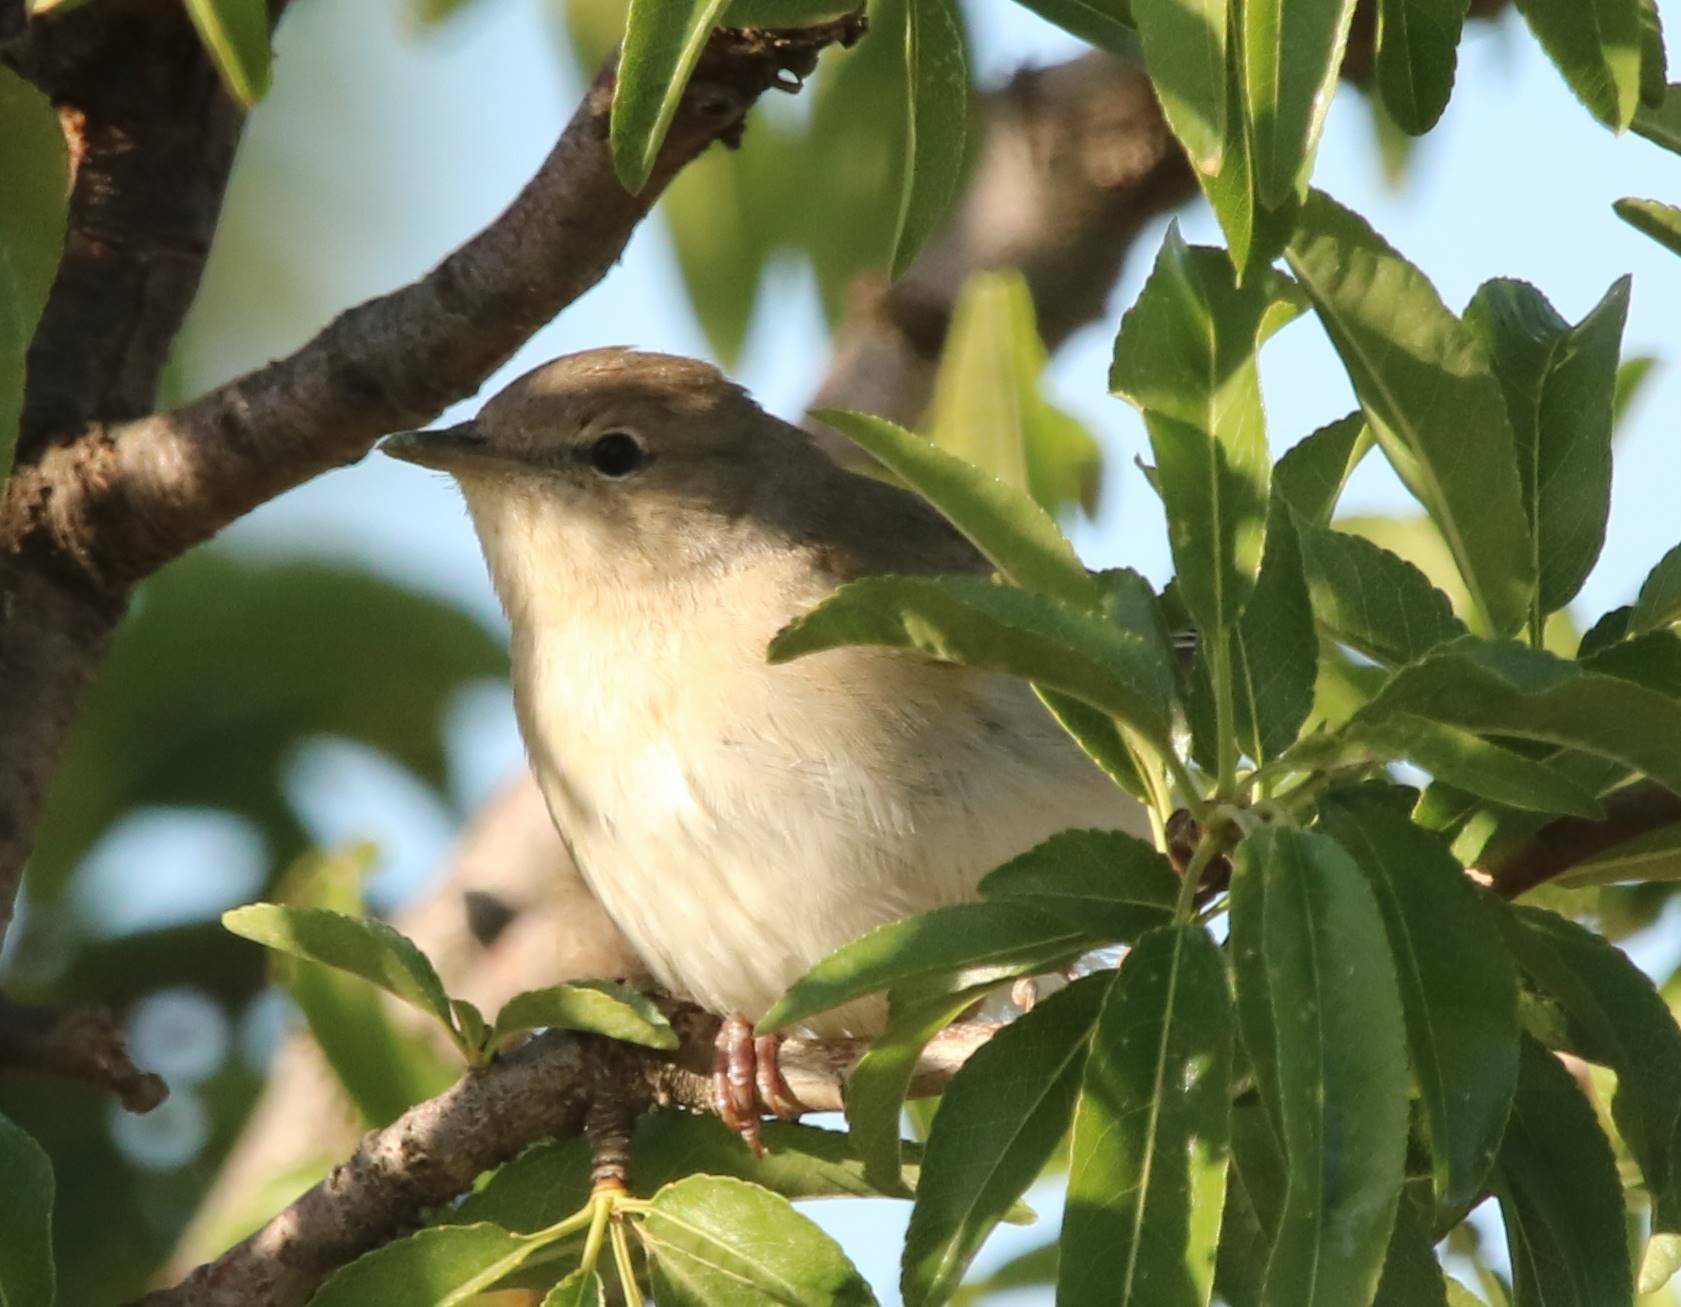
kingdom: Animalia
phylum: Chordata
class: Aves
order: Passeriformes
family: Sylviidae
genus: Sylvia
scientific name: Sylvia borin
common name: Garden warbler
